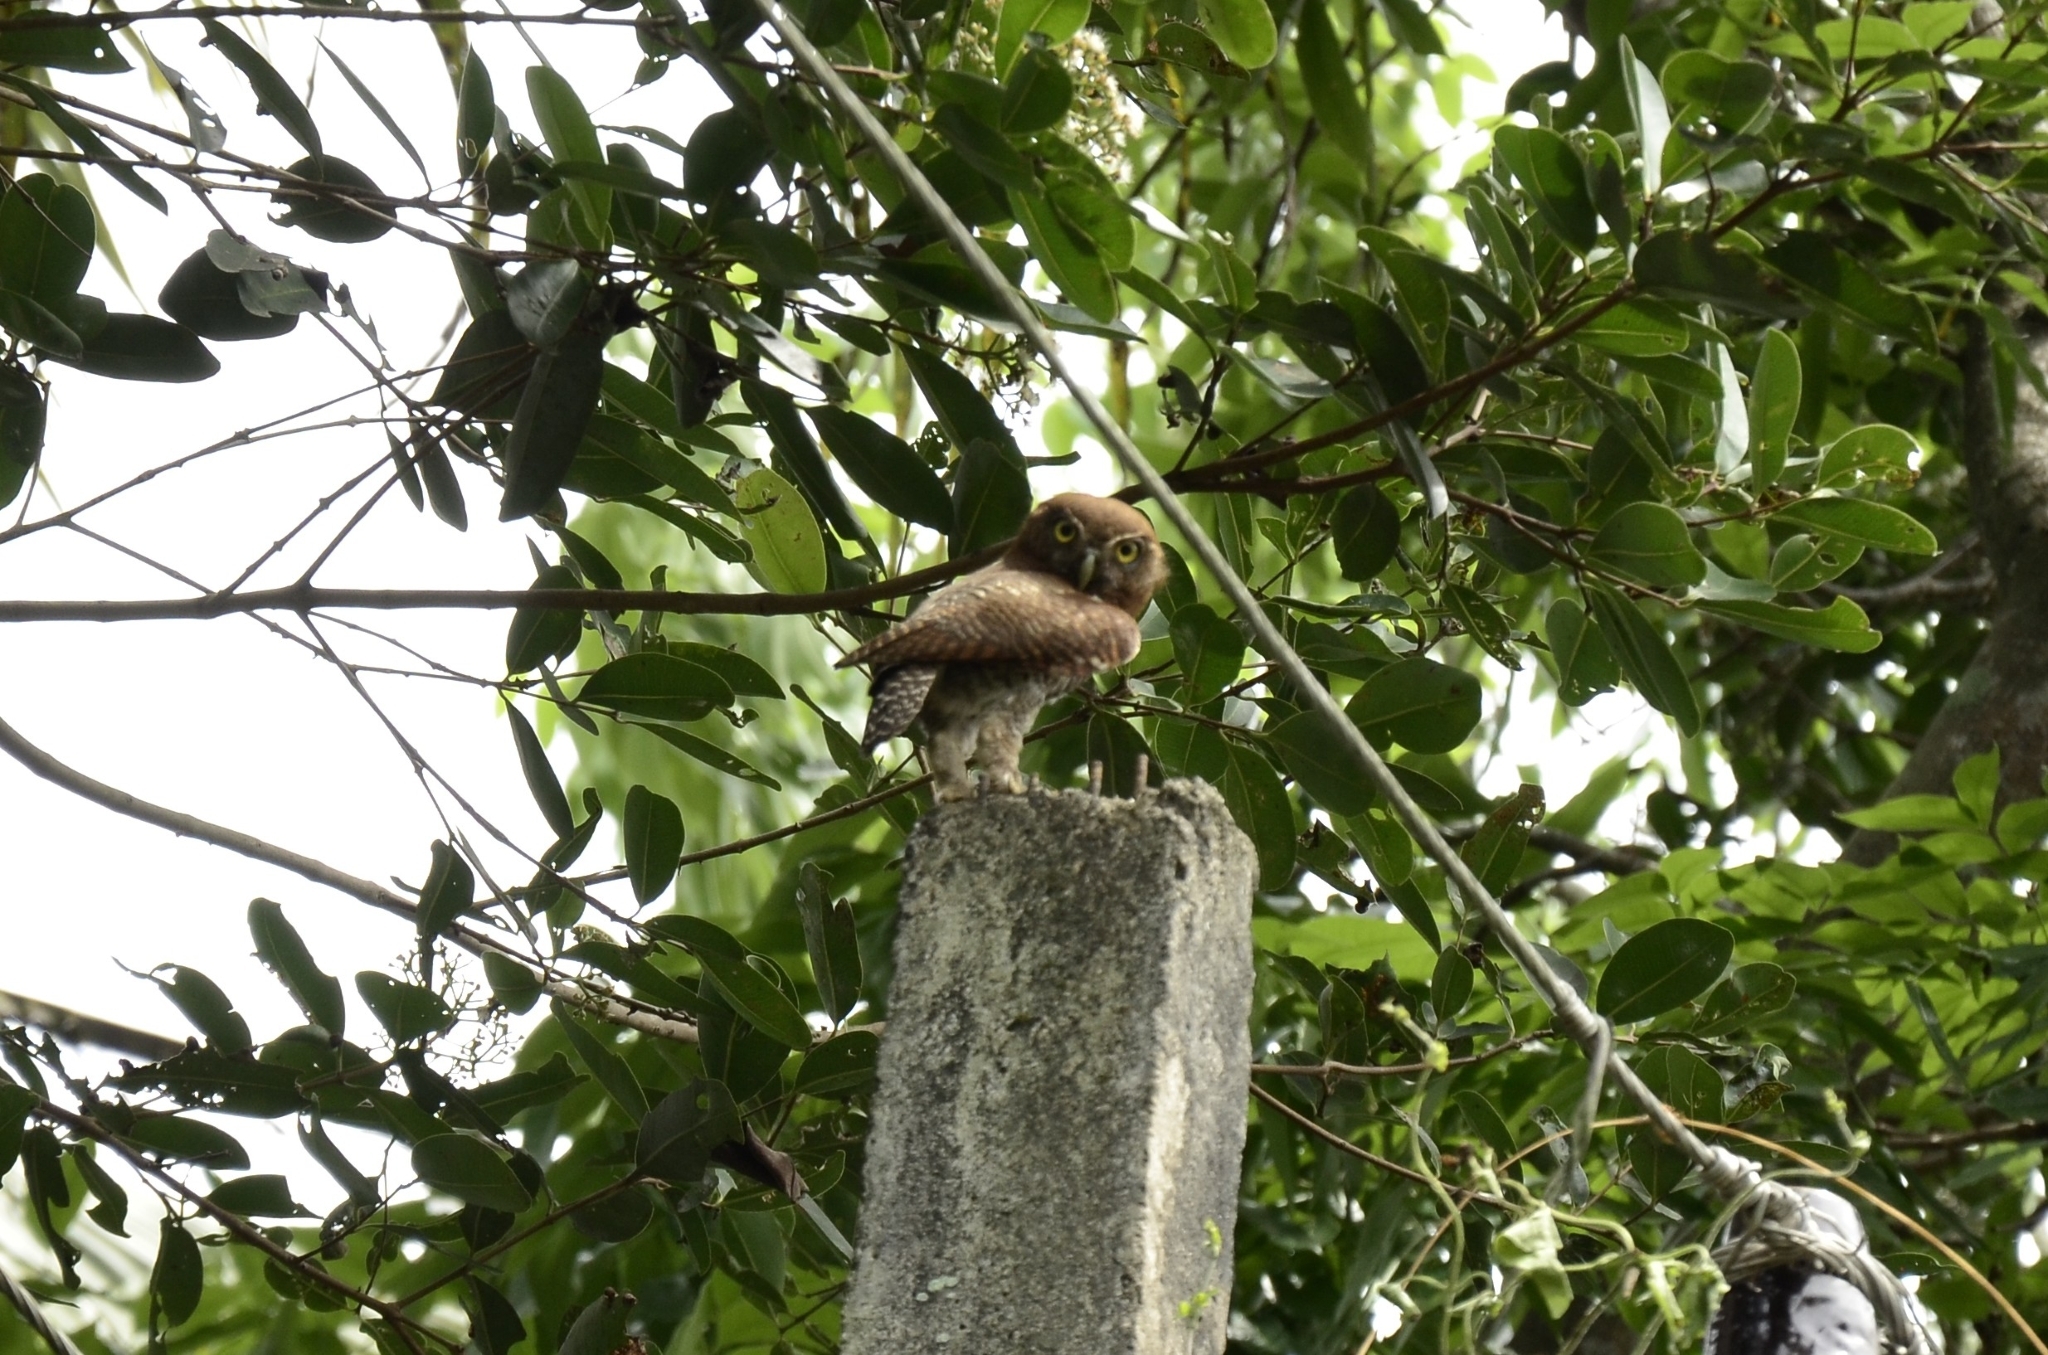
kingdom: Animalia
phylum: Chordata
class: Aves
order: Strigiformes
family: Strigidae
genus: Glaucidium
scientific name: Glaucidium radiatum
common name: Jungle owlet
